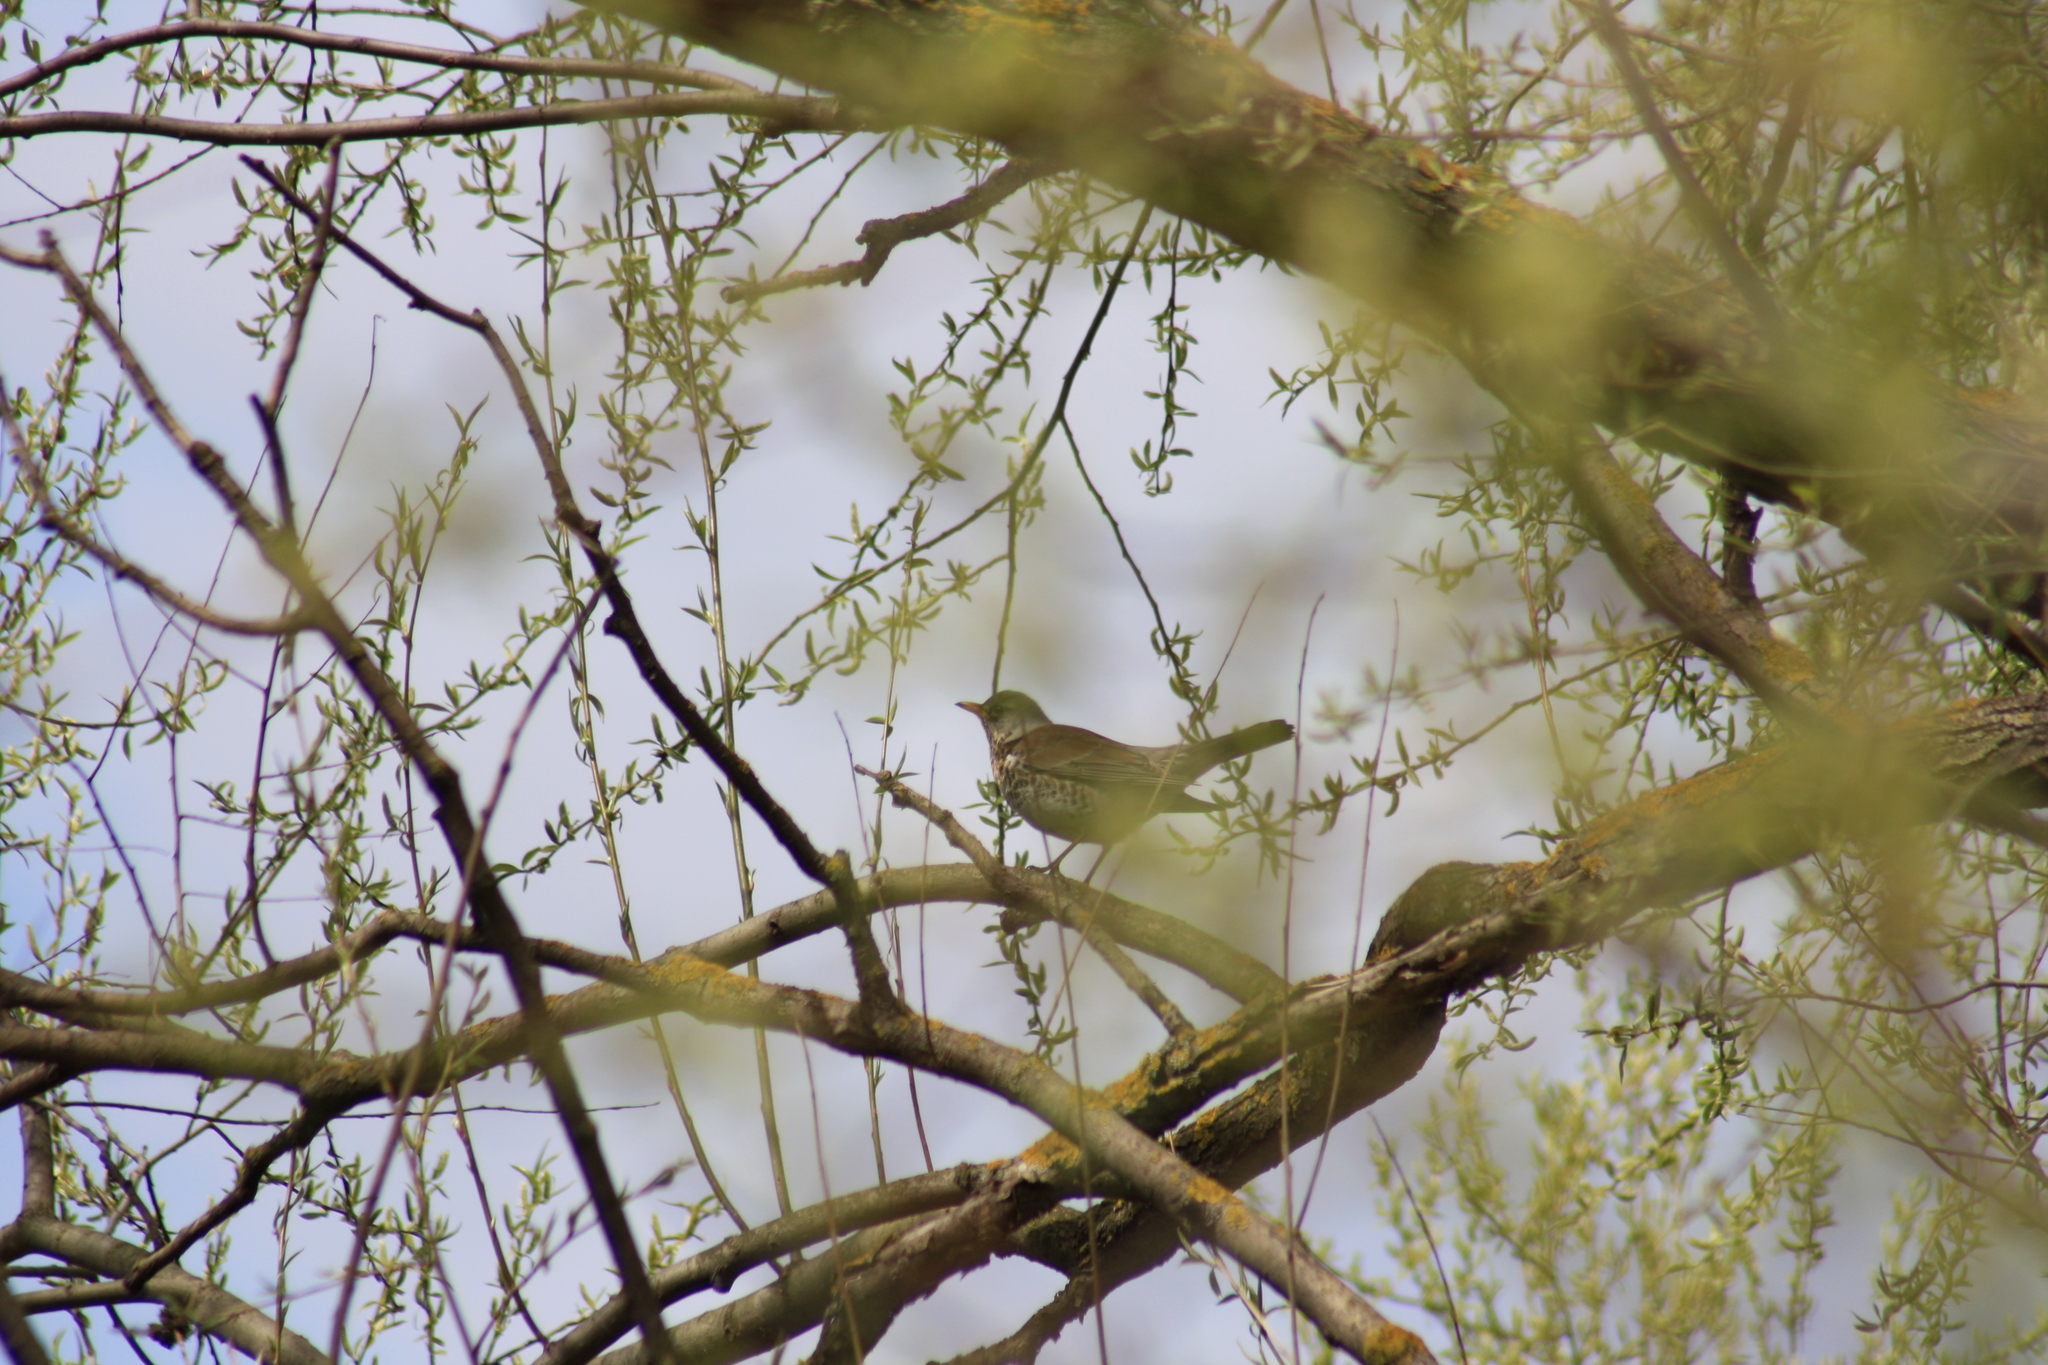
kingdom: Animalia
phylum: Chordata
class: Aves
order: Passeriformes
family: Turdidae
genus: Turdus
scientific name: Turdus pilaris
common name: Fieldfare
